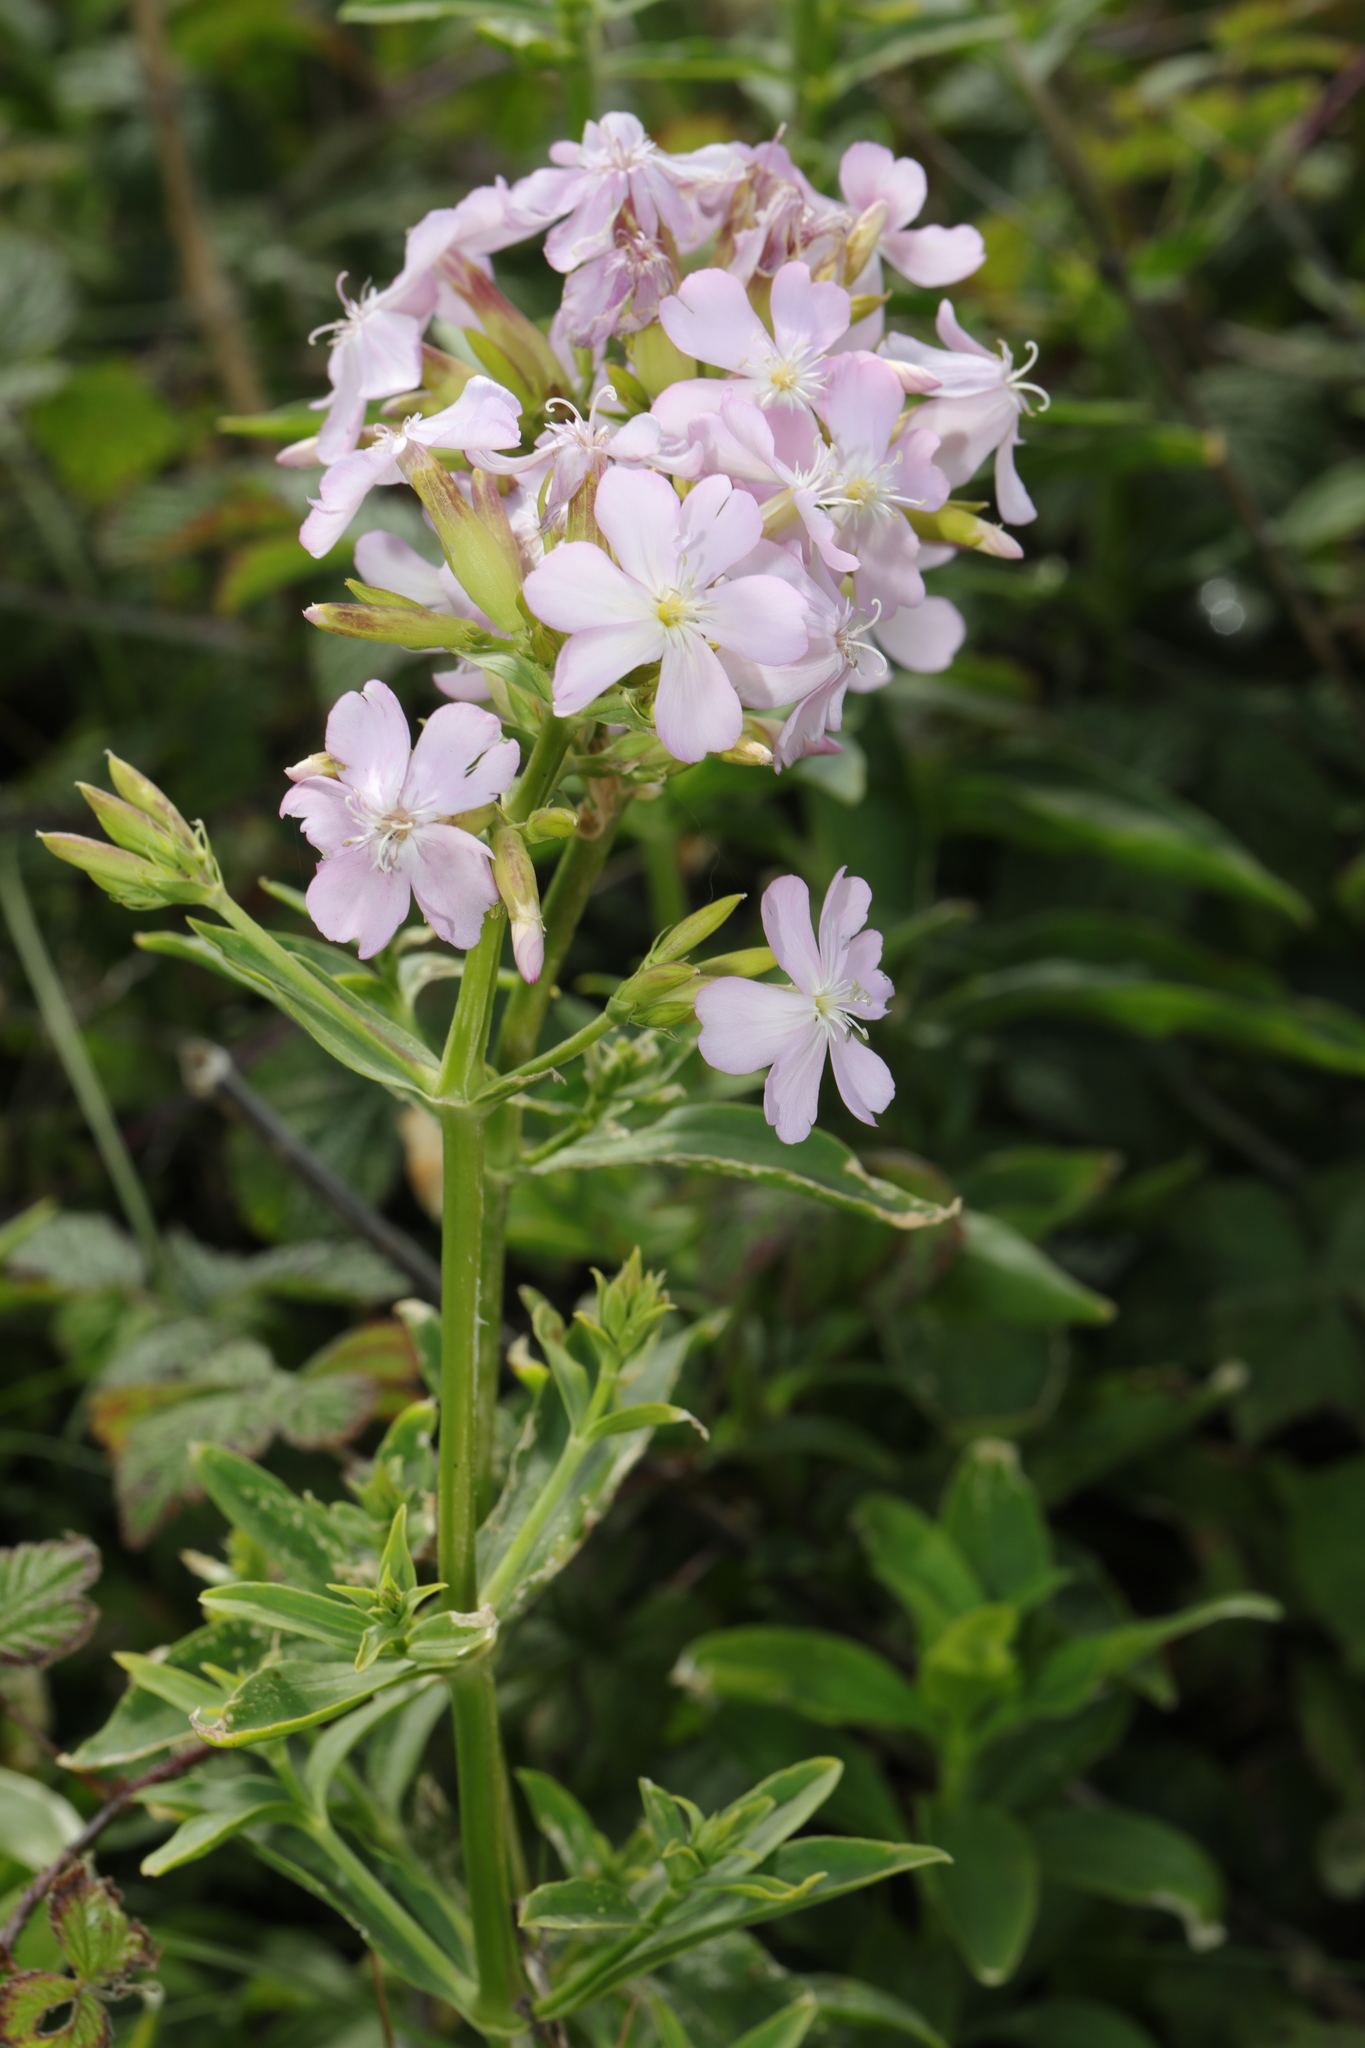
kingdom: Plantae
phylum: Tracheophyta
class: Magnoliopsida
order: Caryophyllales
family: Caryophyllaceae
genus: Saponaria
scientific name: Saponaria officinalis
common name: Soapwort
